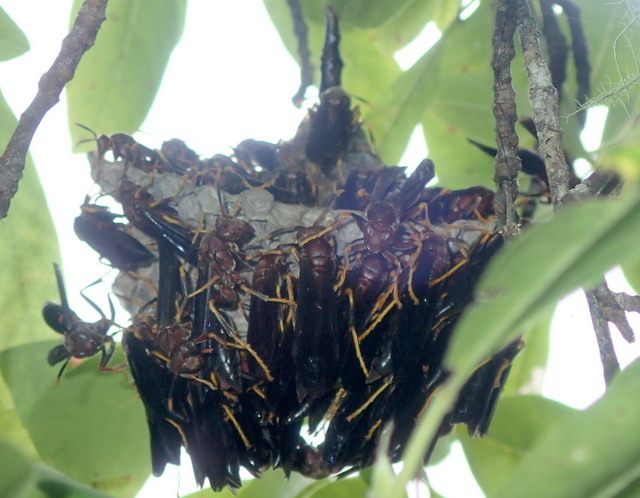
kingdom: Animalia
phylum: Arthropoda
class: Insecta
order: Hymenoptera
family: Eumenidae
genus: Polistes
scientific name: Polistes annularis
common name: Ringed paper wasp
